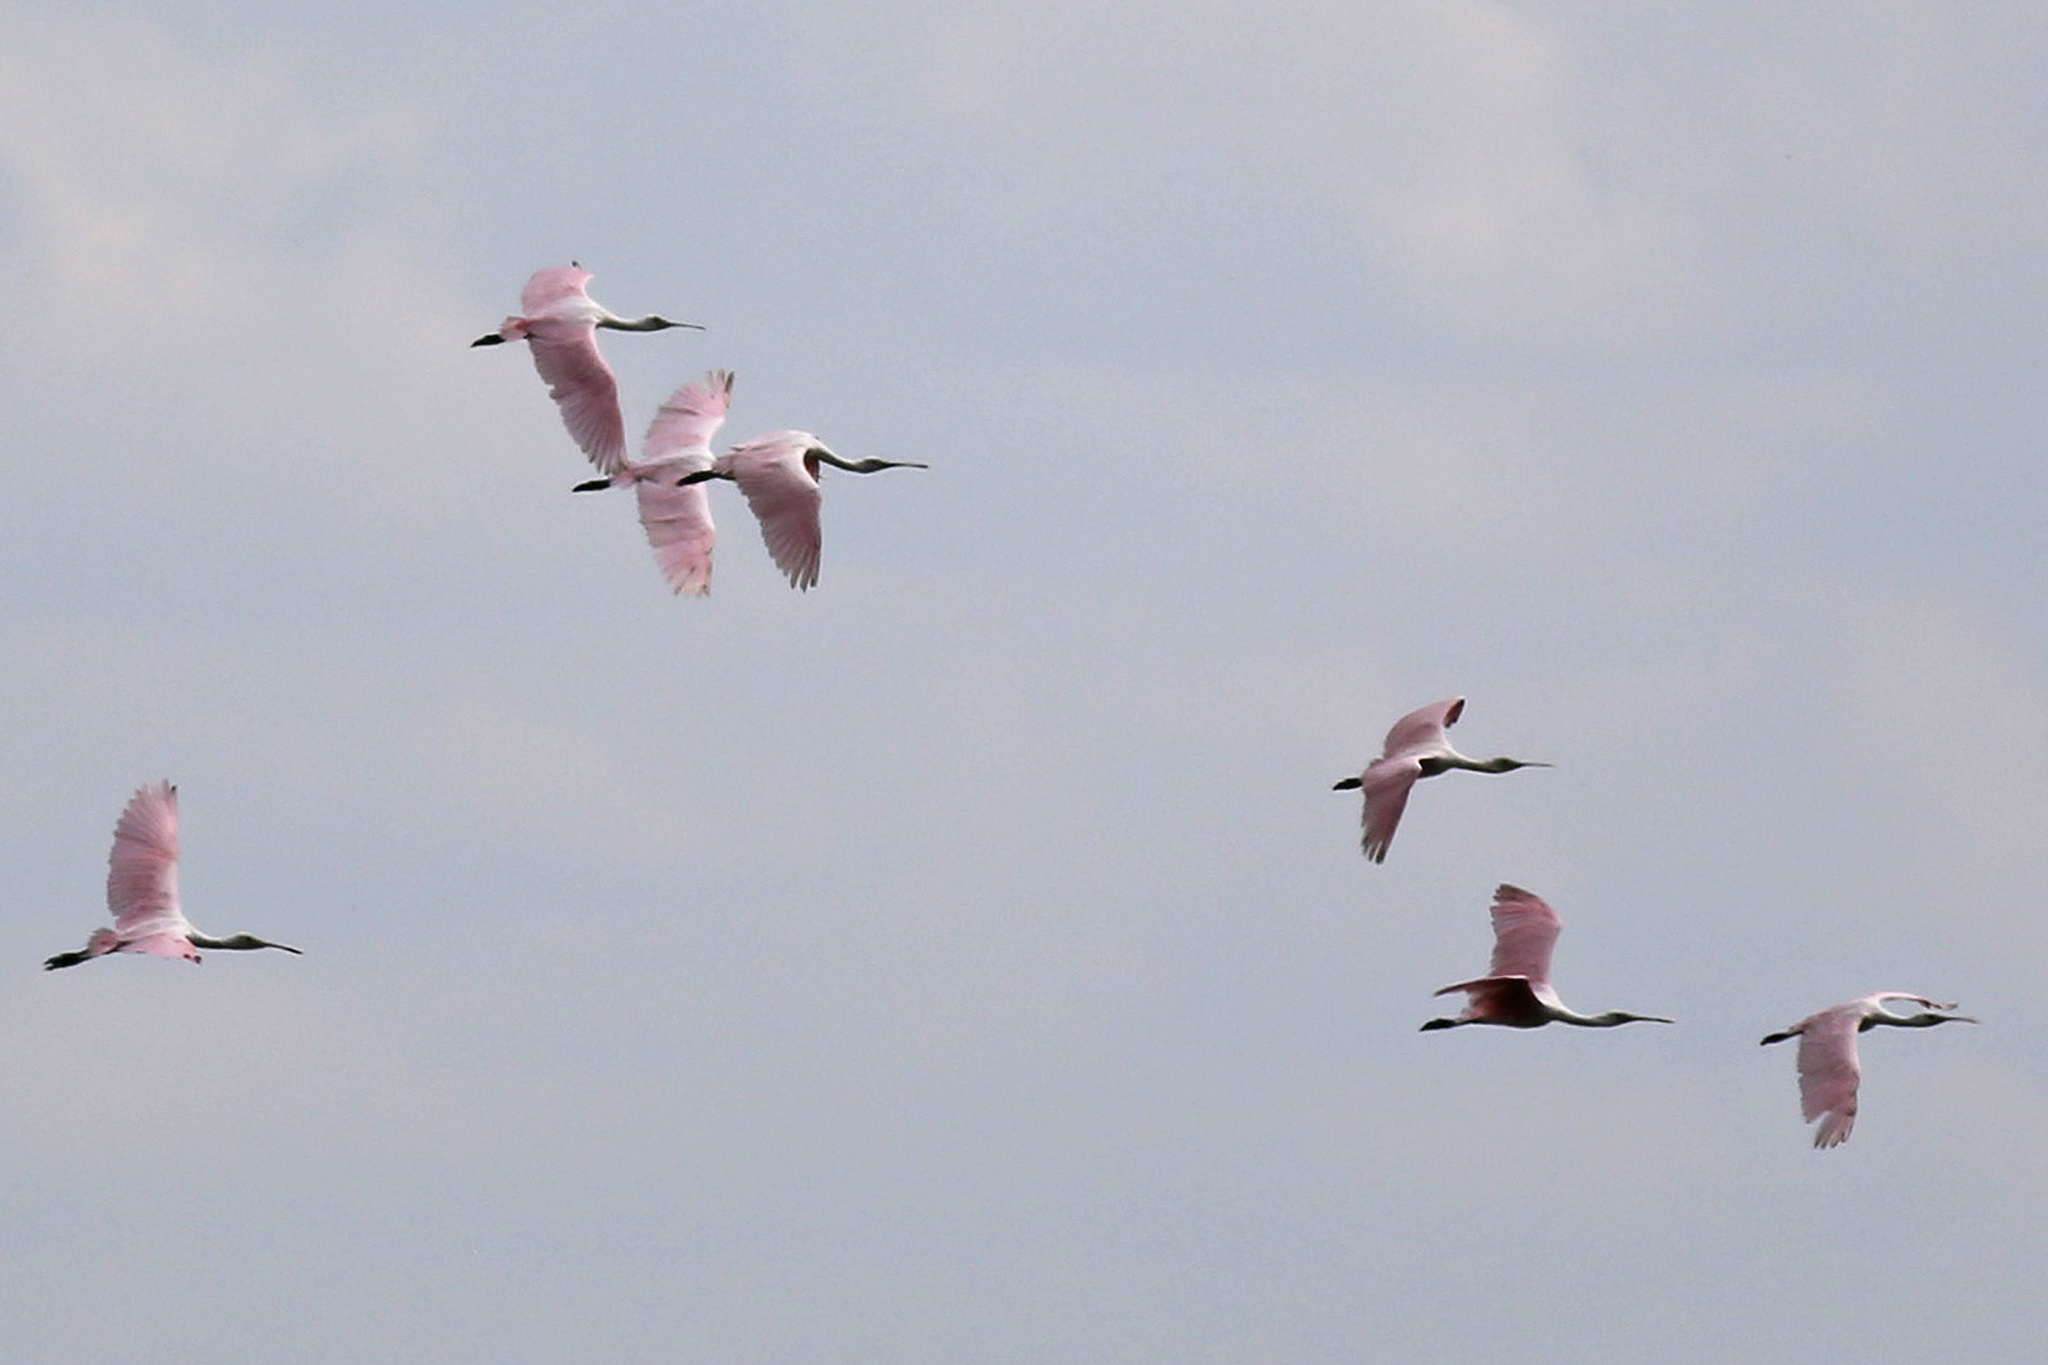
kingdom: Animalia
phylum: Chordata
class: Aves
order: Pelecaniformes
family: Threskiornithidae
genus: Platalea
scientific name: Platalea ajaja
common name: Roseate spoonbill
